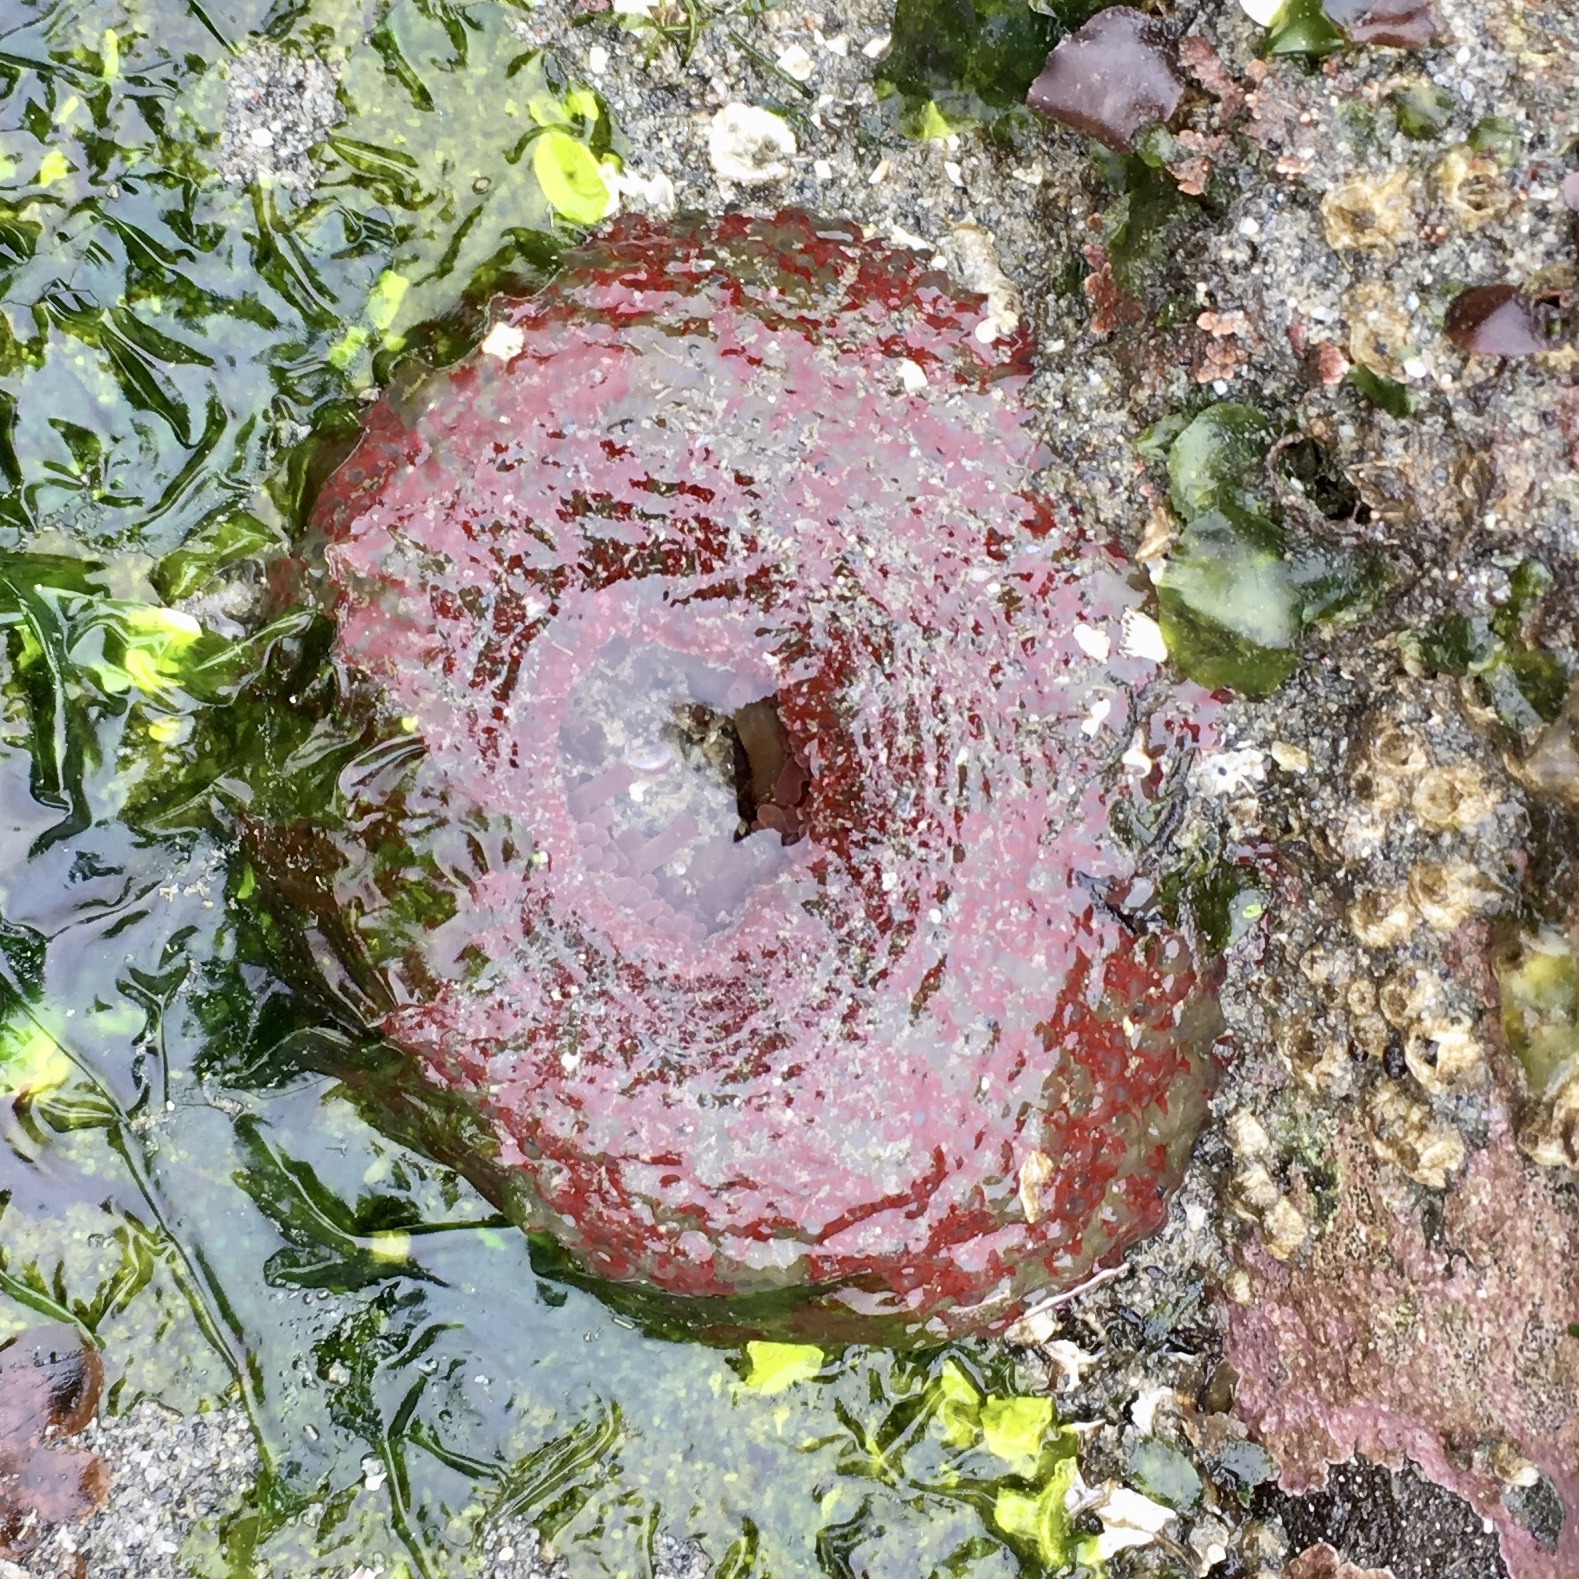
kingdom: Animalia
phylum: Cnidaria
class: Anthozoa
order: Actiniaria
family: Actiniidae
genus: Urticina
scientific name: Urticina grebelnyi
